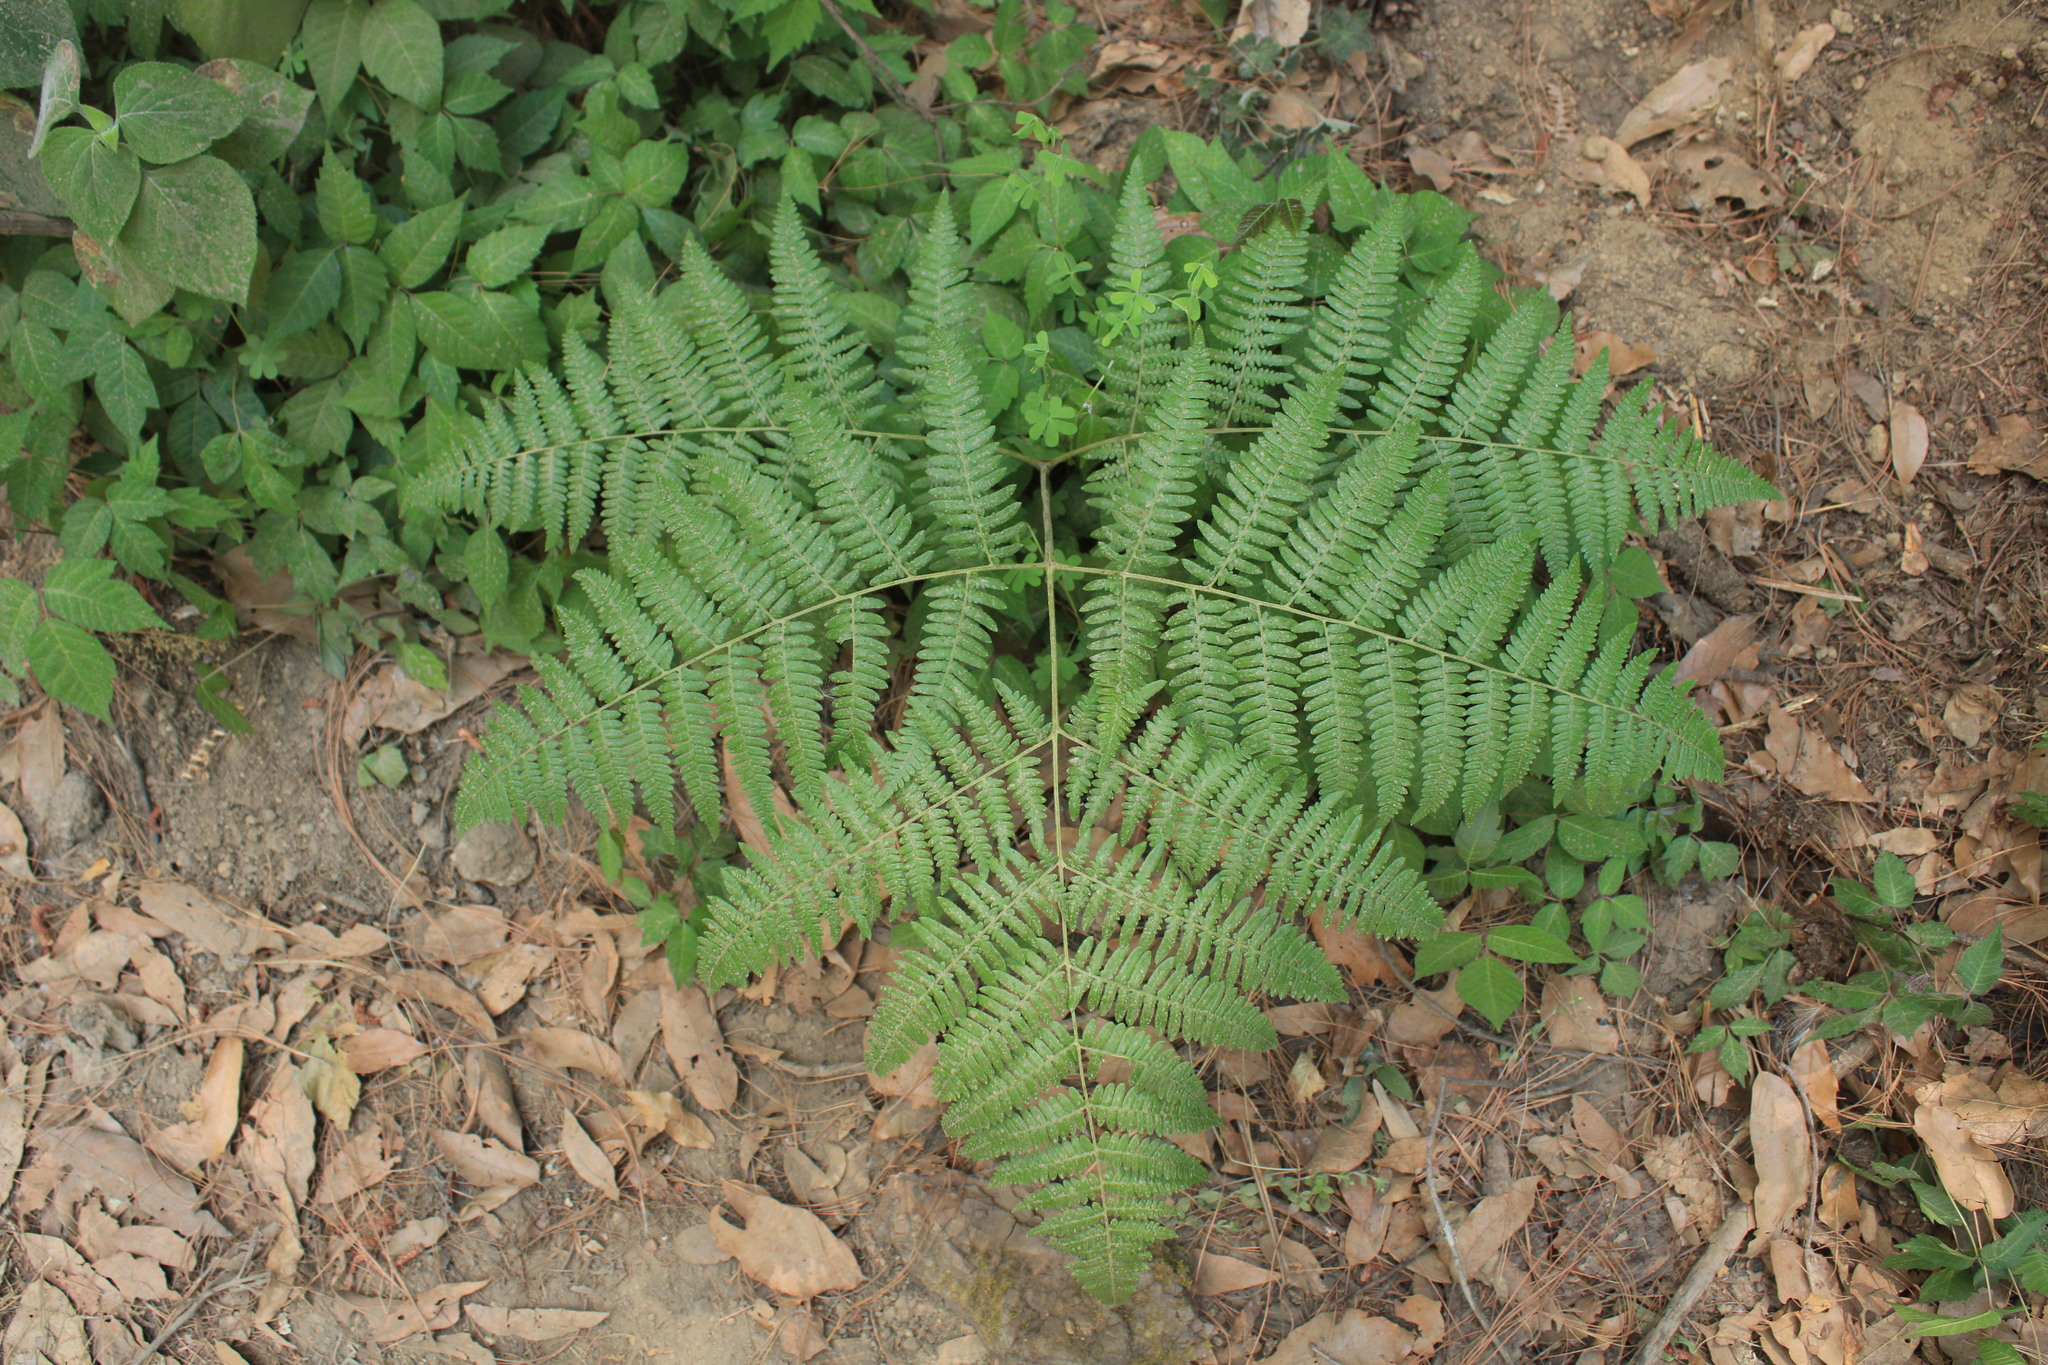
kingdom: Plantae
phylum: Tracheophyta
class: Polypodiopsida
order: Polypodiales
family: Dennstaedtiaceae
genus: Pteridium
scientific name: Pteridium aquilinum
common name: Bracken
